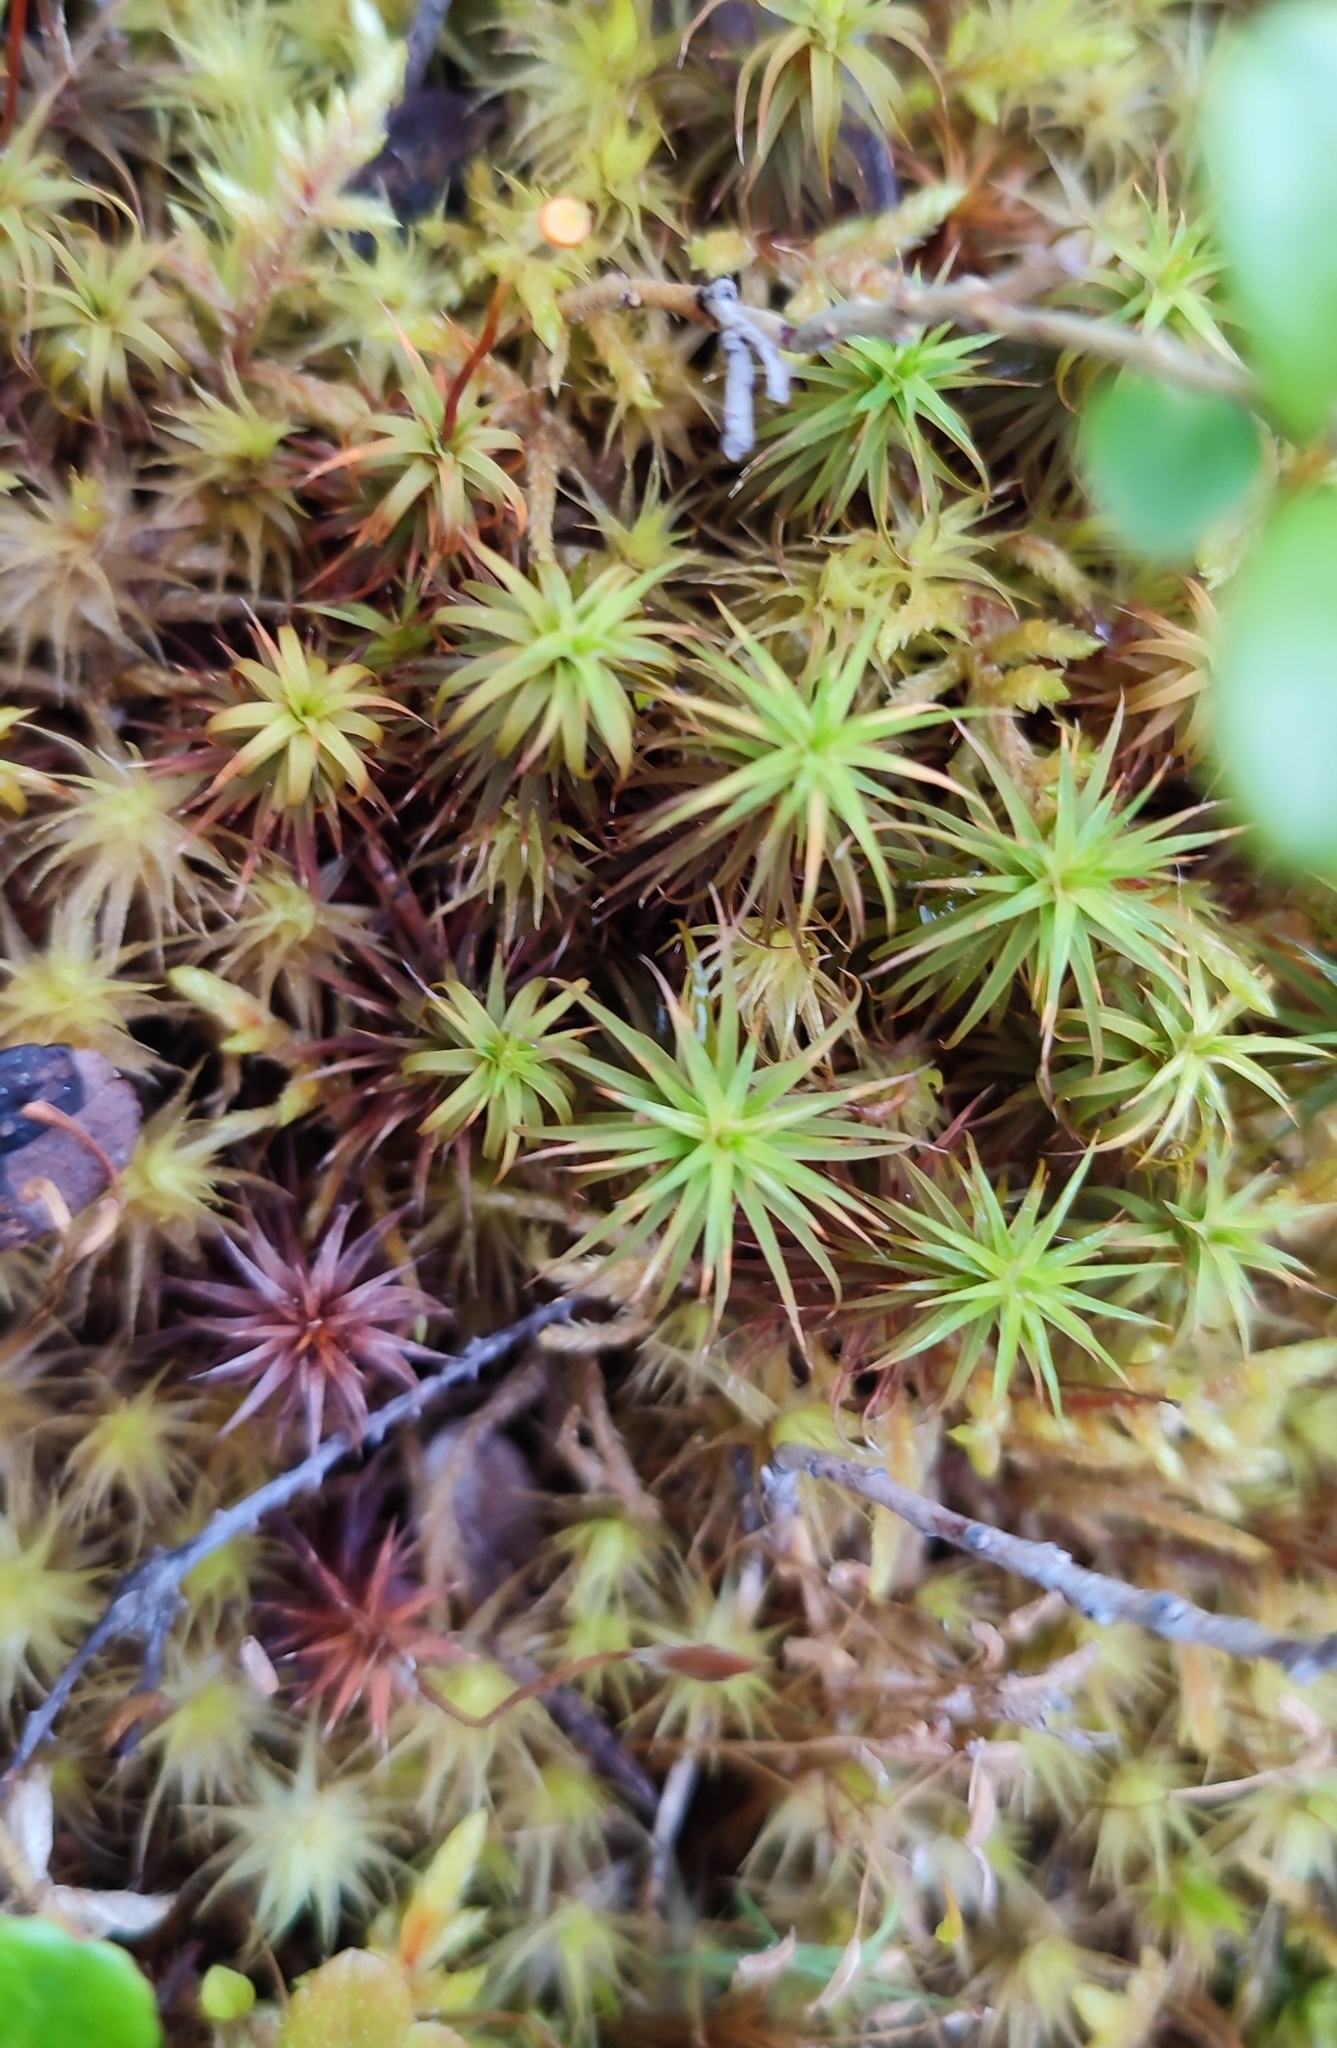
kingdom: Plantae
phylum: Bryophyta
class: Polytrichopsida
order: Polytrichales
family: Polytrichaceae
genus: Polytrichum
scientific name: Polytrichum commune
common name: Common haircap
